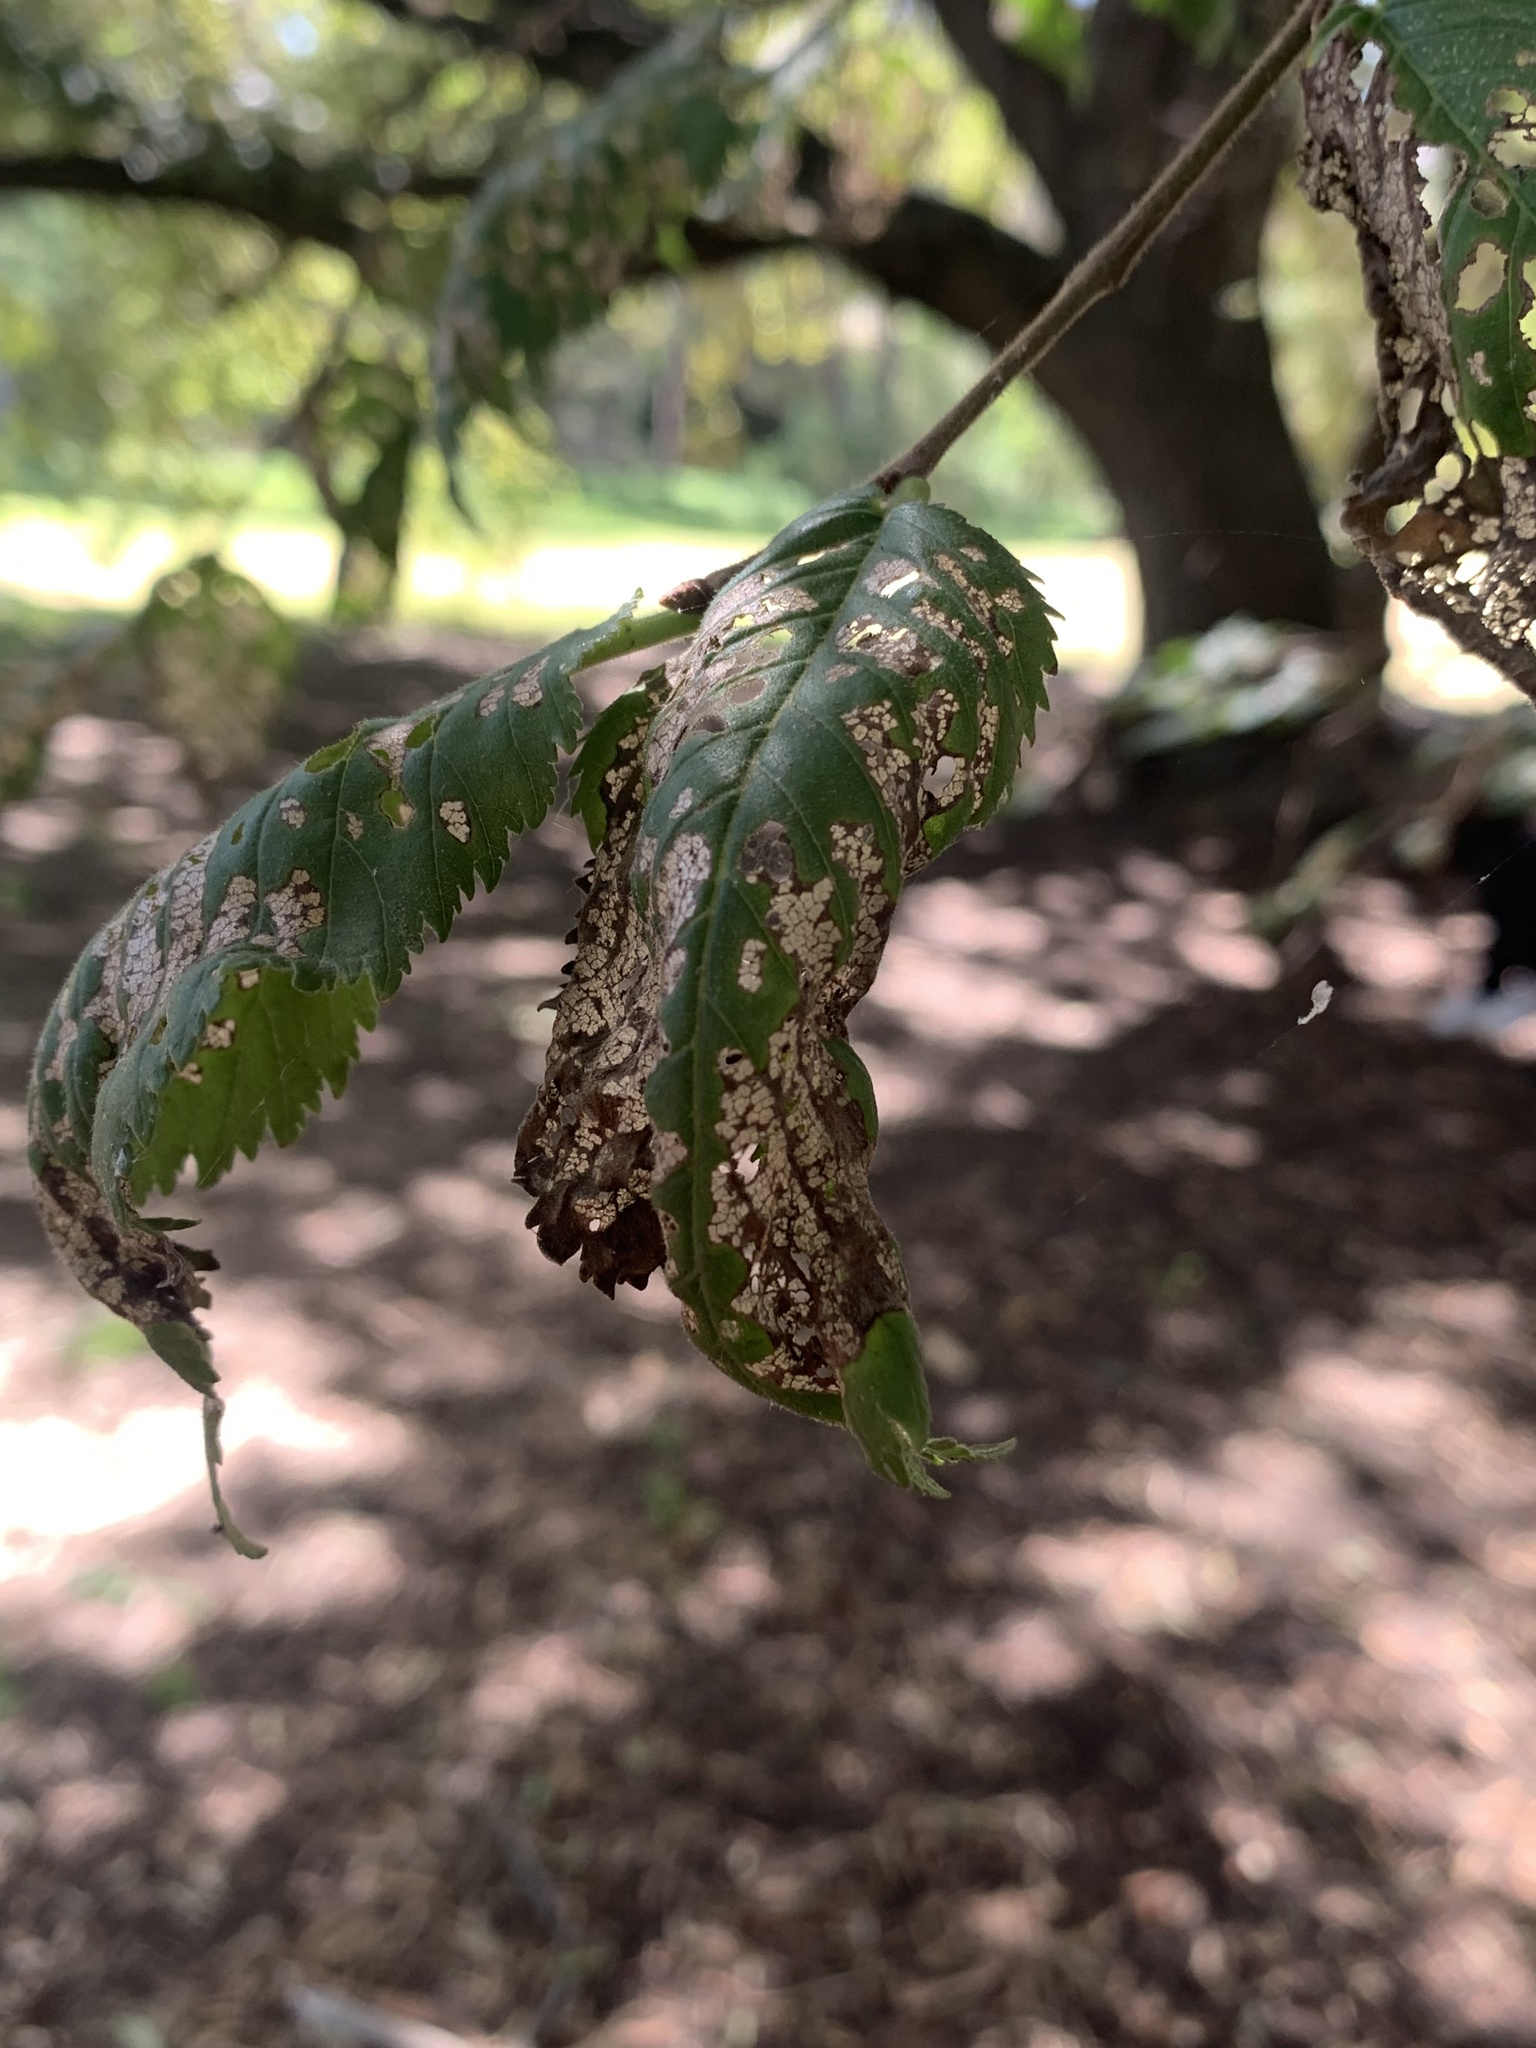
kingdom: Animalia
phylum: Arthropoda
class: Insecta
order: Coleoptera
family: Chrysomelidae
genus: Xanthogaleruca
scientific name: Xanthogaleruca luteola
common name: Elm leaf beetle
